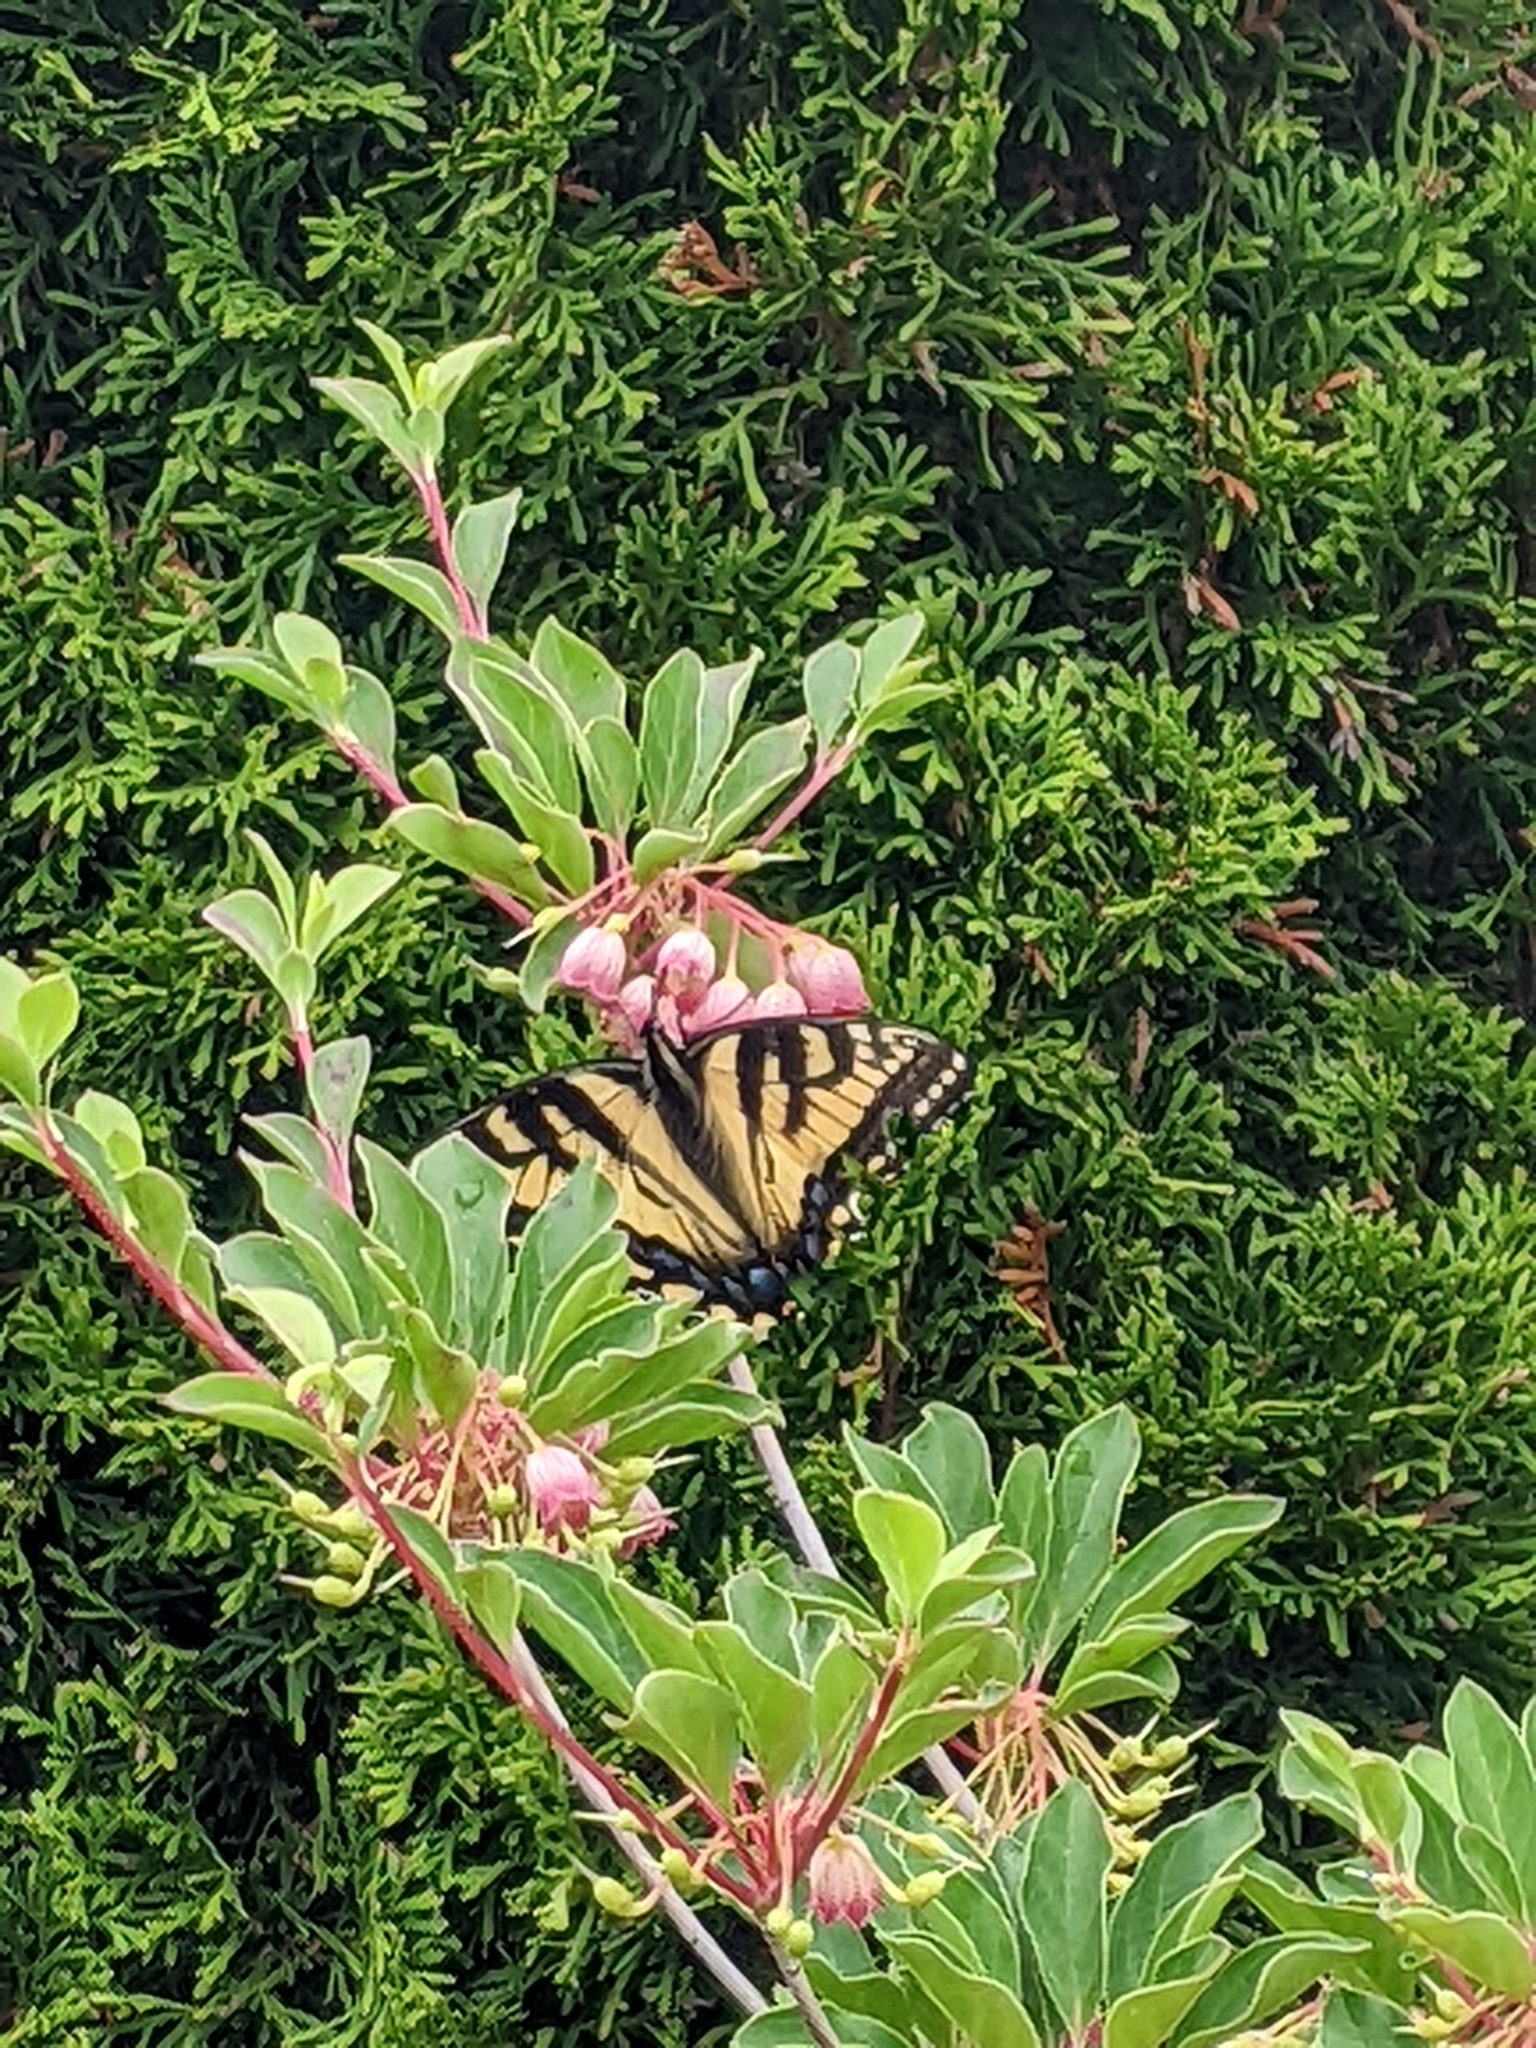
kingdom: Animalia
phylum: Arthropoda
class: Insecta
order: Lepidoptera
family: Papilionidae
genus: Papilio
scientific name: Papilio canadensis
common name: Canadian tiger swallowtail
